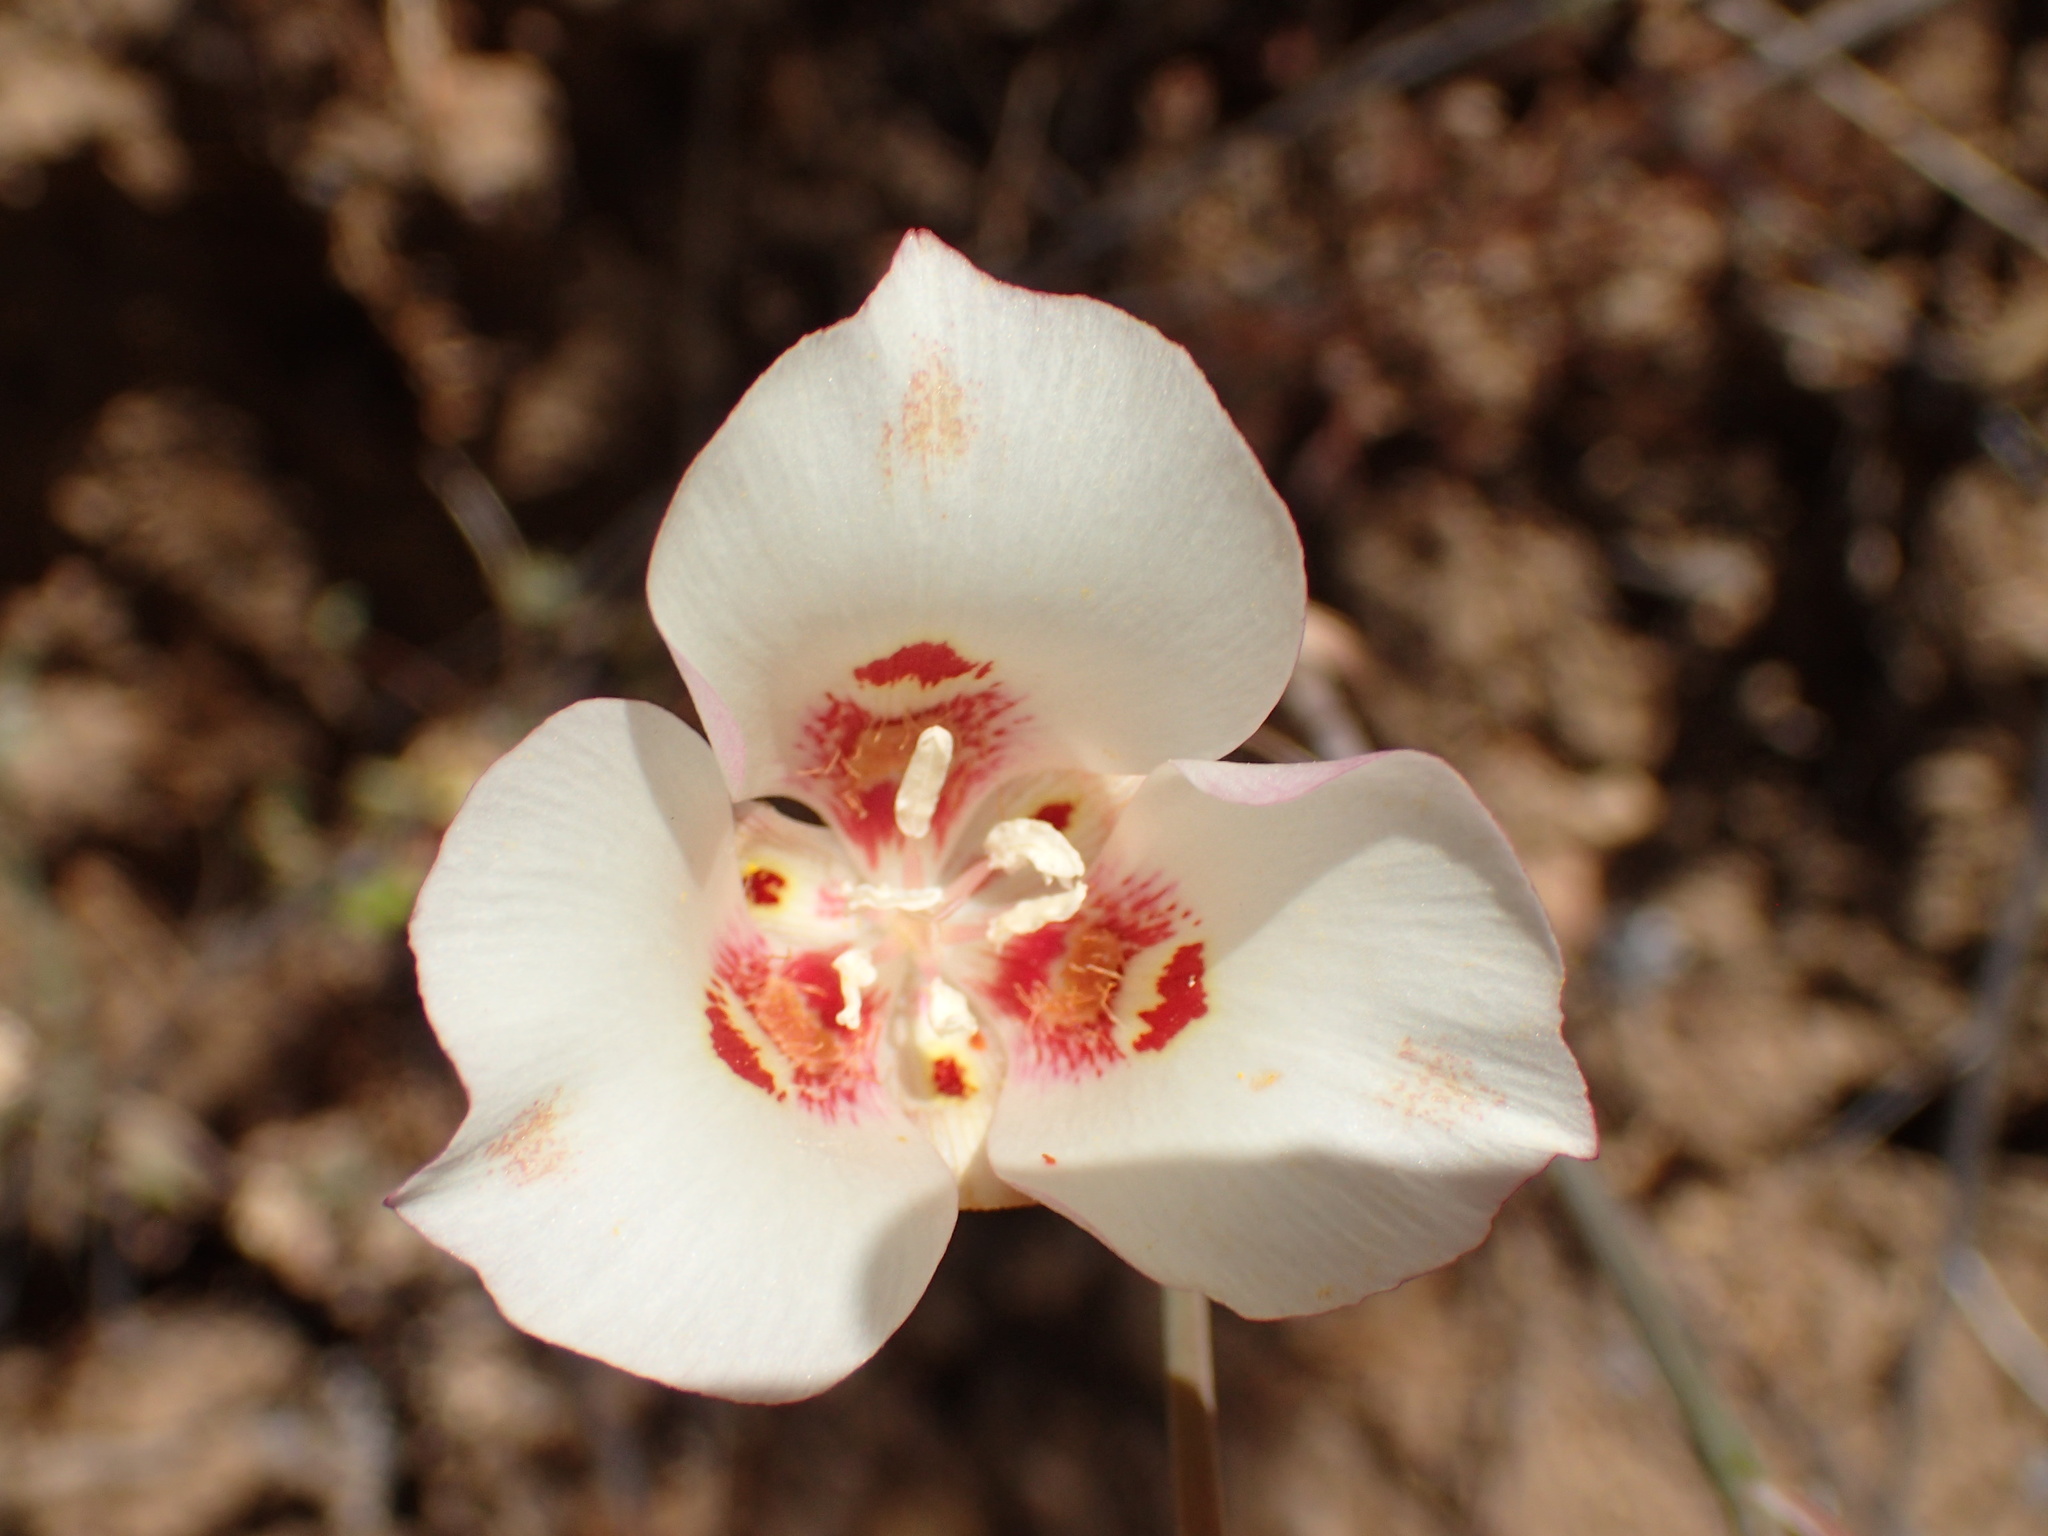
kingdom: Plantae
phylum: Tracheophyta
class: Liliopsida
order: Liliales
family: Liliaceae
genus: Calochortus
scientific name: Calochortus venustus
